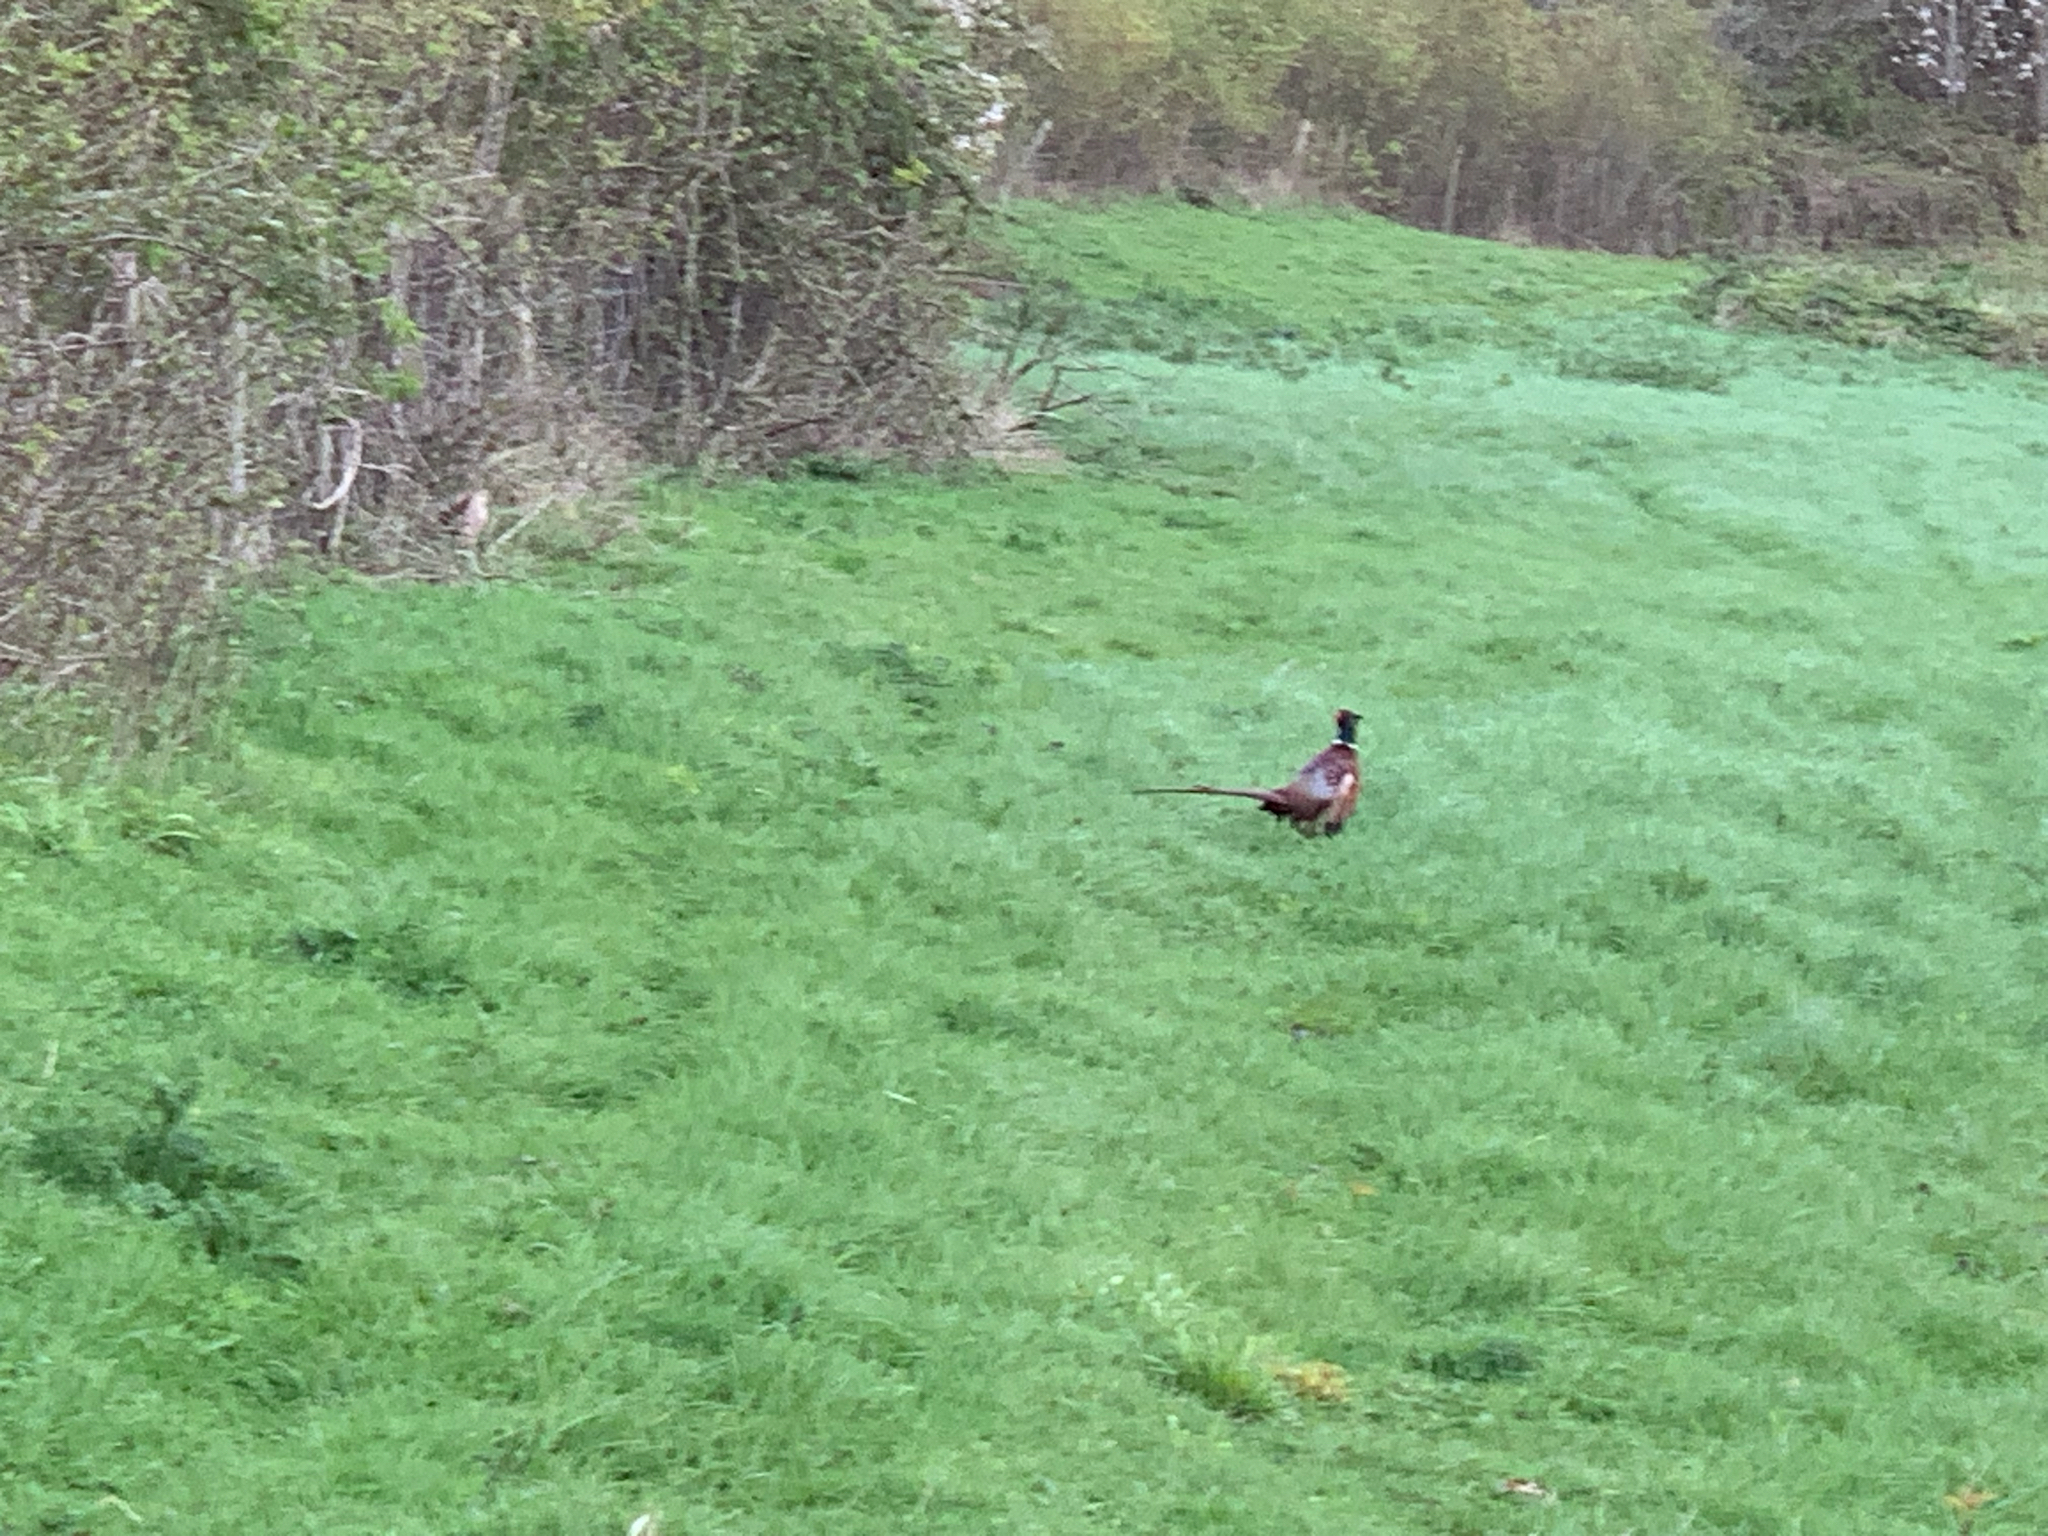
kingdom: Animalia
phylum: Chordata
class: Aves
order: Galliformes
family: Phasianidae
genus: Phasianus
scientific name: Phasianus colchicus
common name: Common pheasant
